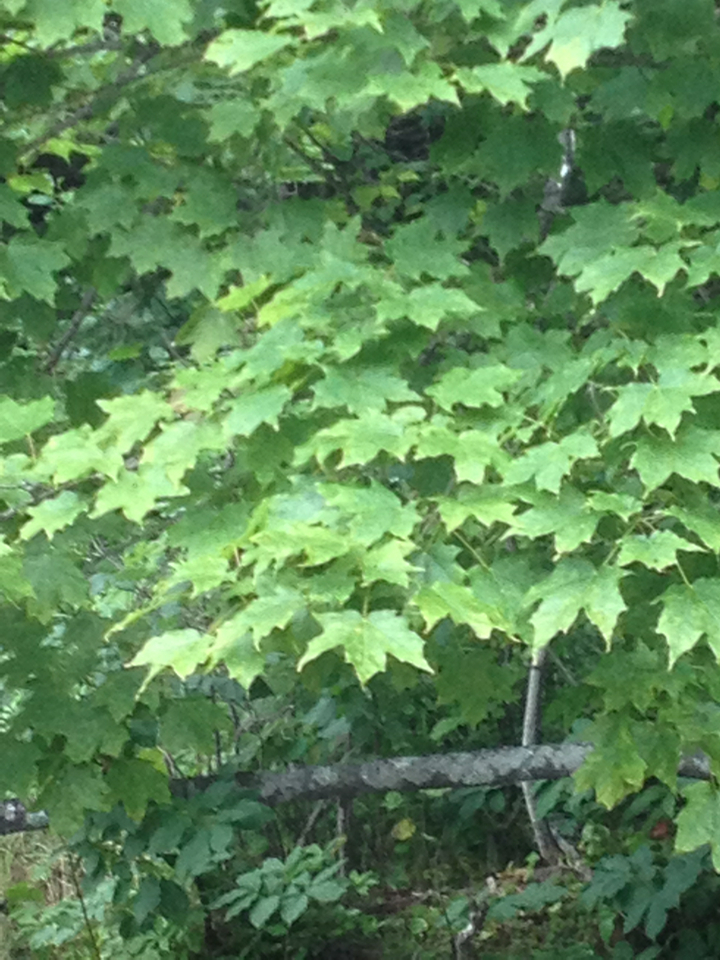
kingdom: Plantae
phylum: Tracheophyta
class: Magnoliopsida
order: Sapindales
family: Sapindaceae
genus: Acer
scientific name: Acer saccharum
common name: Sugar maple
